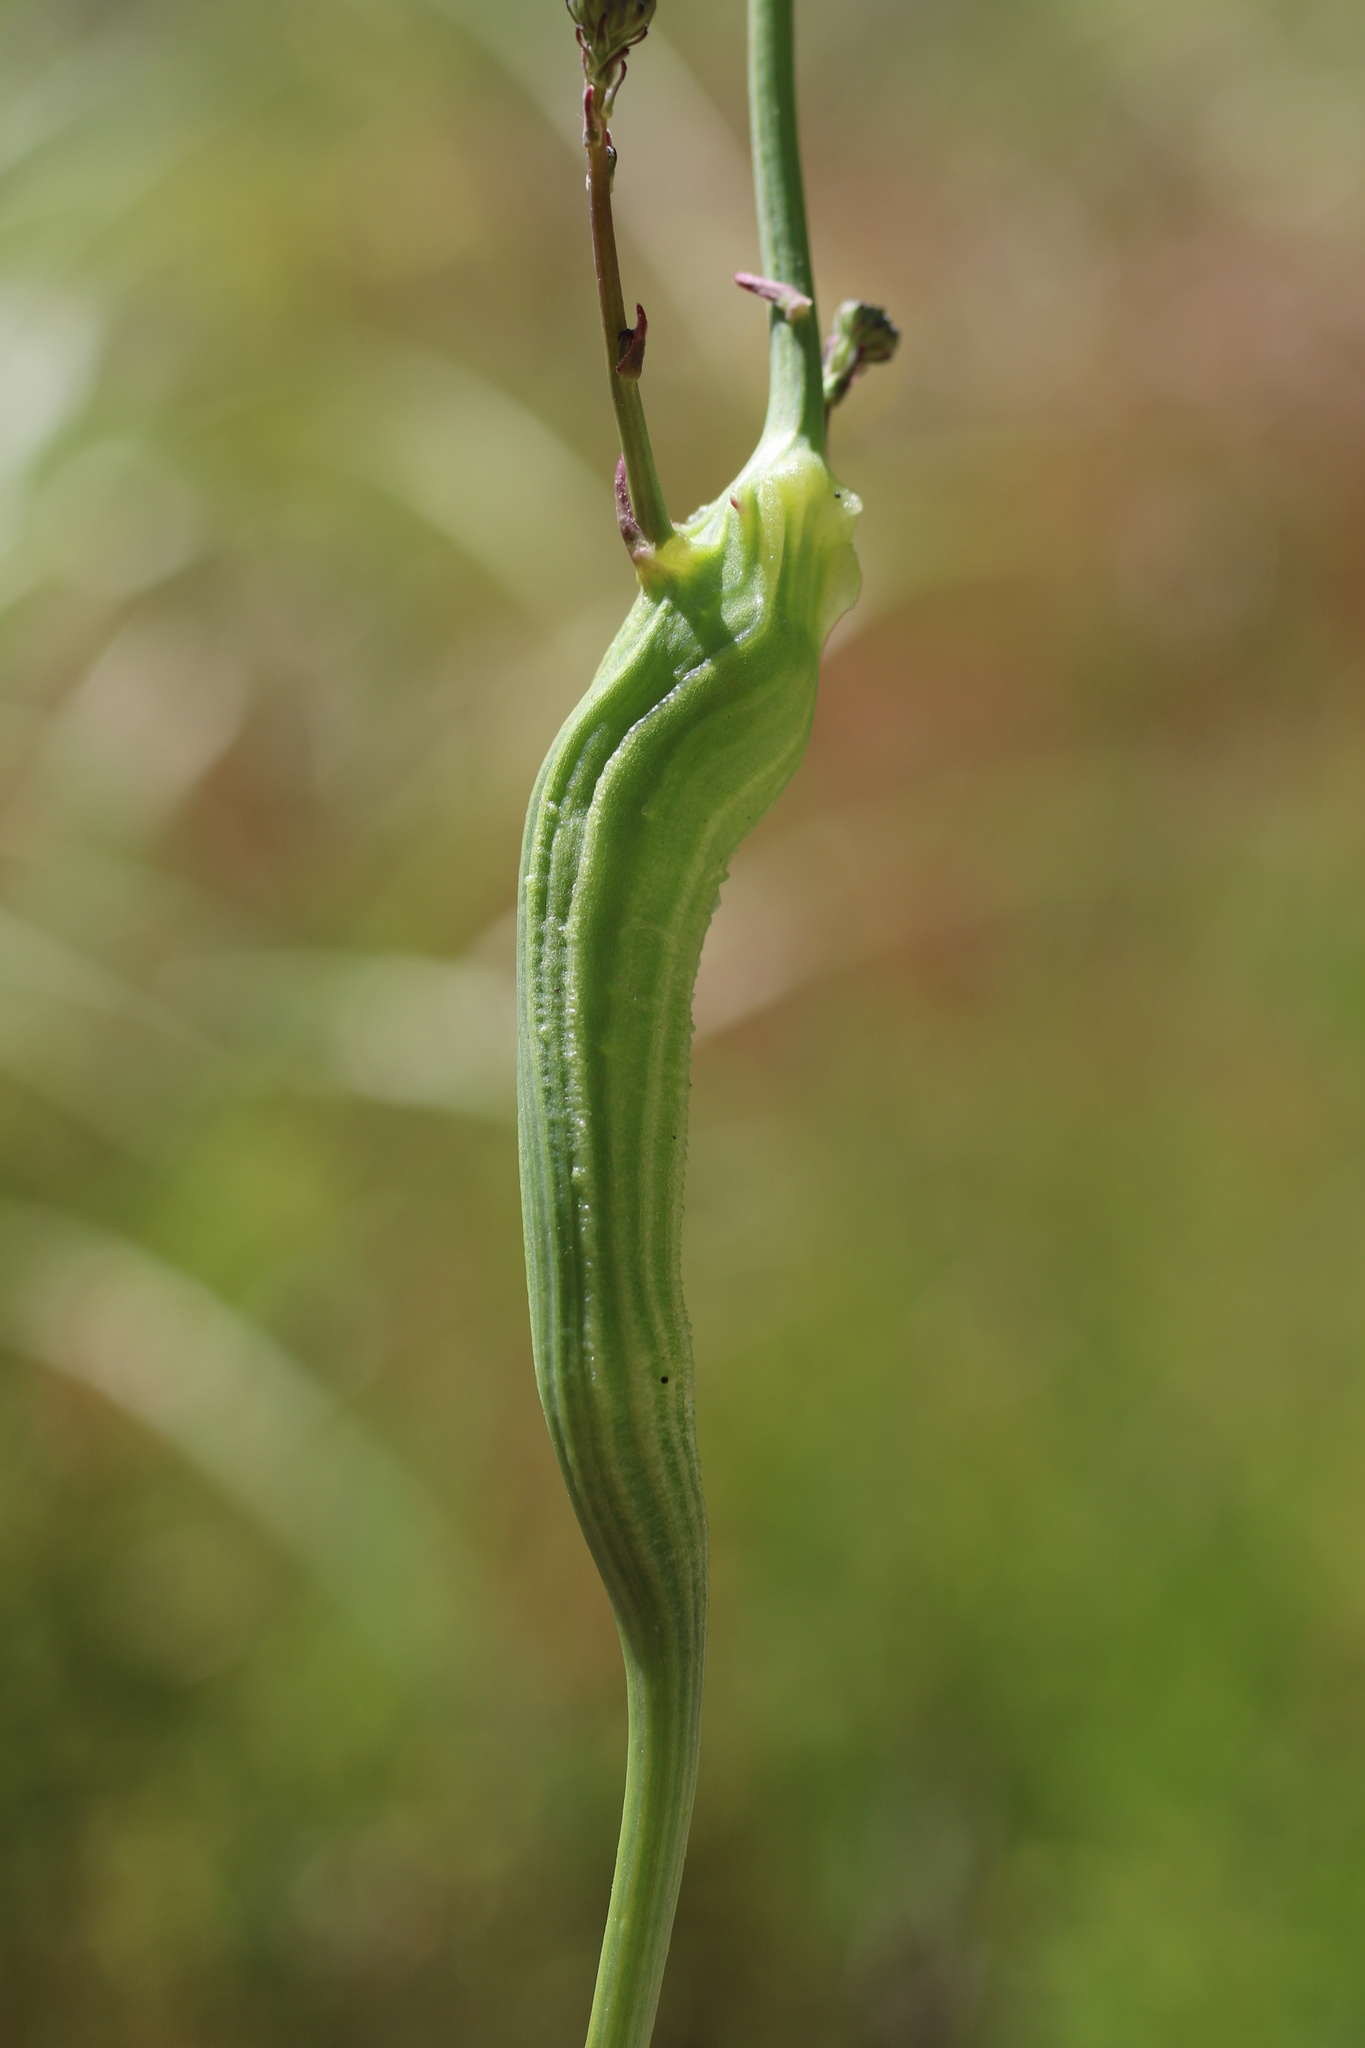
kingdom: Animalia
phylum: Arthropoda
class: Insecta
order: Hymenoptera
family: Cynipidae
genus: Phanacis
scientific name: Phanacis hypochoeridis
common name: Gall wasp
